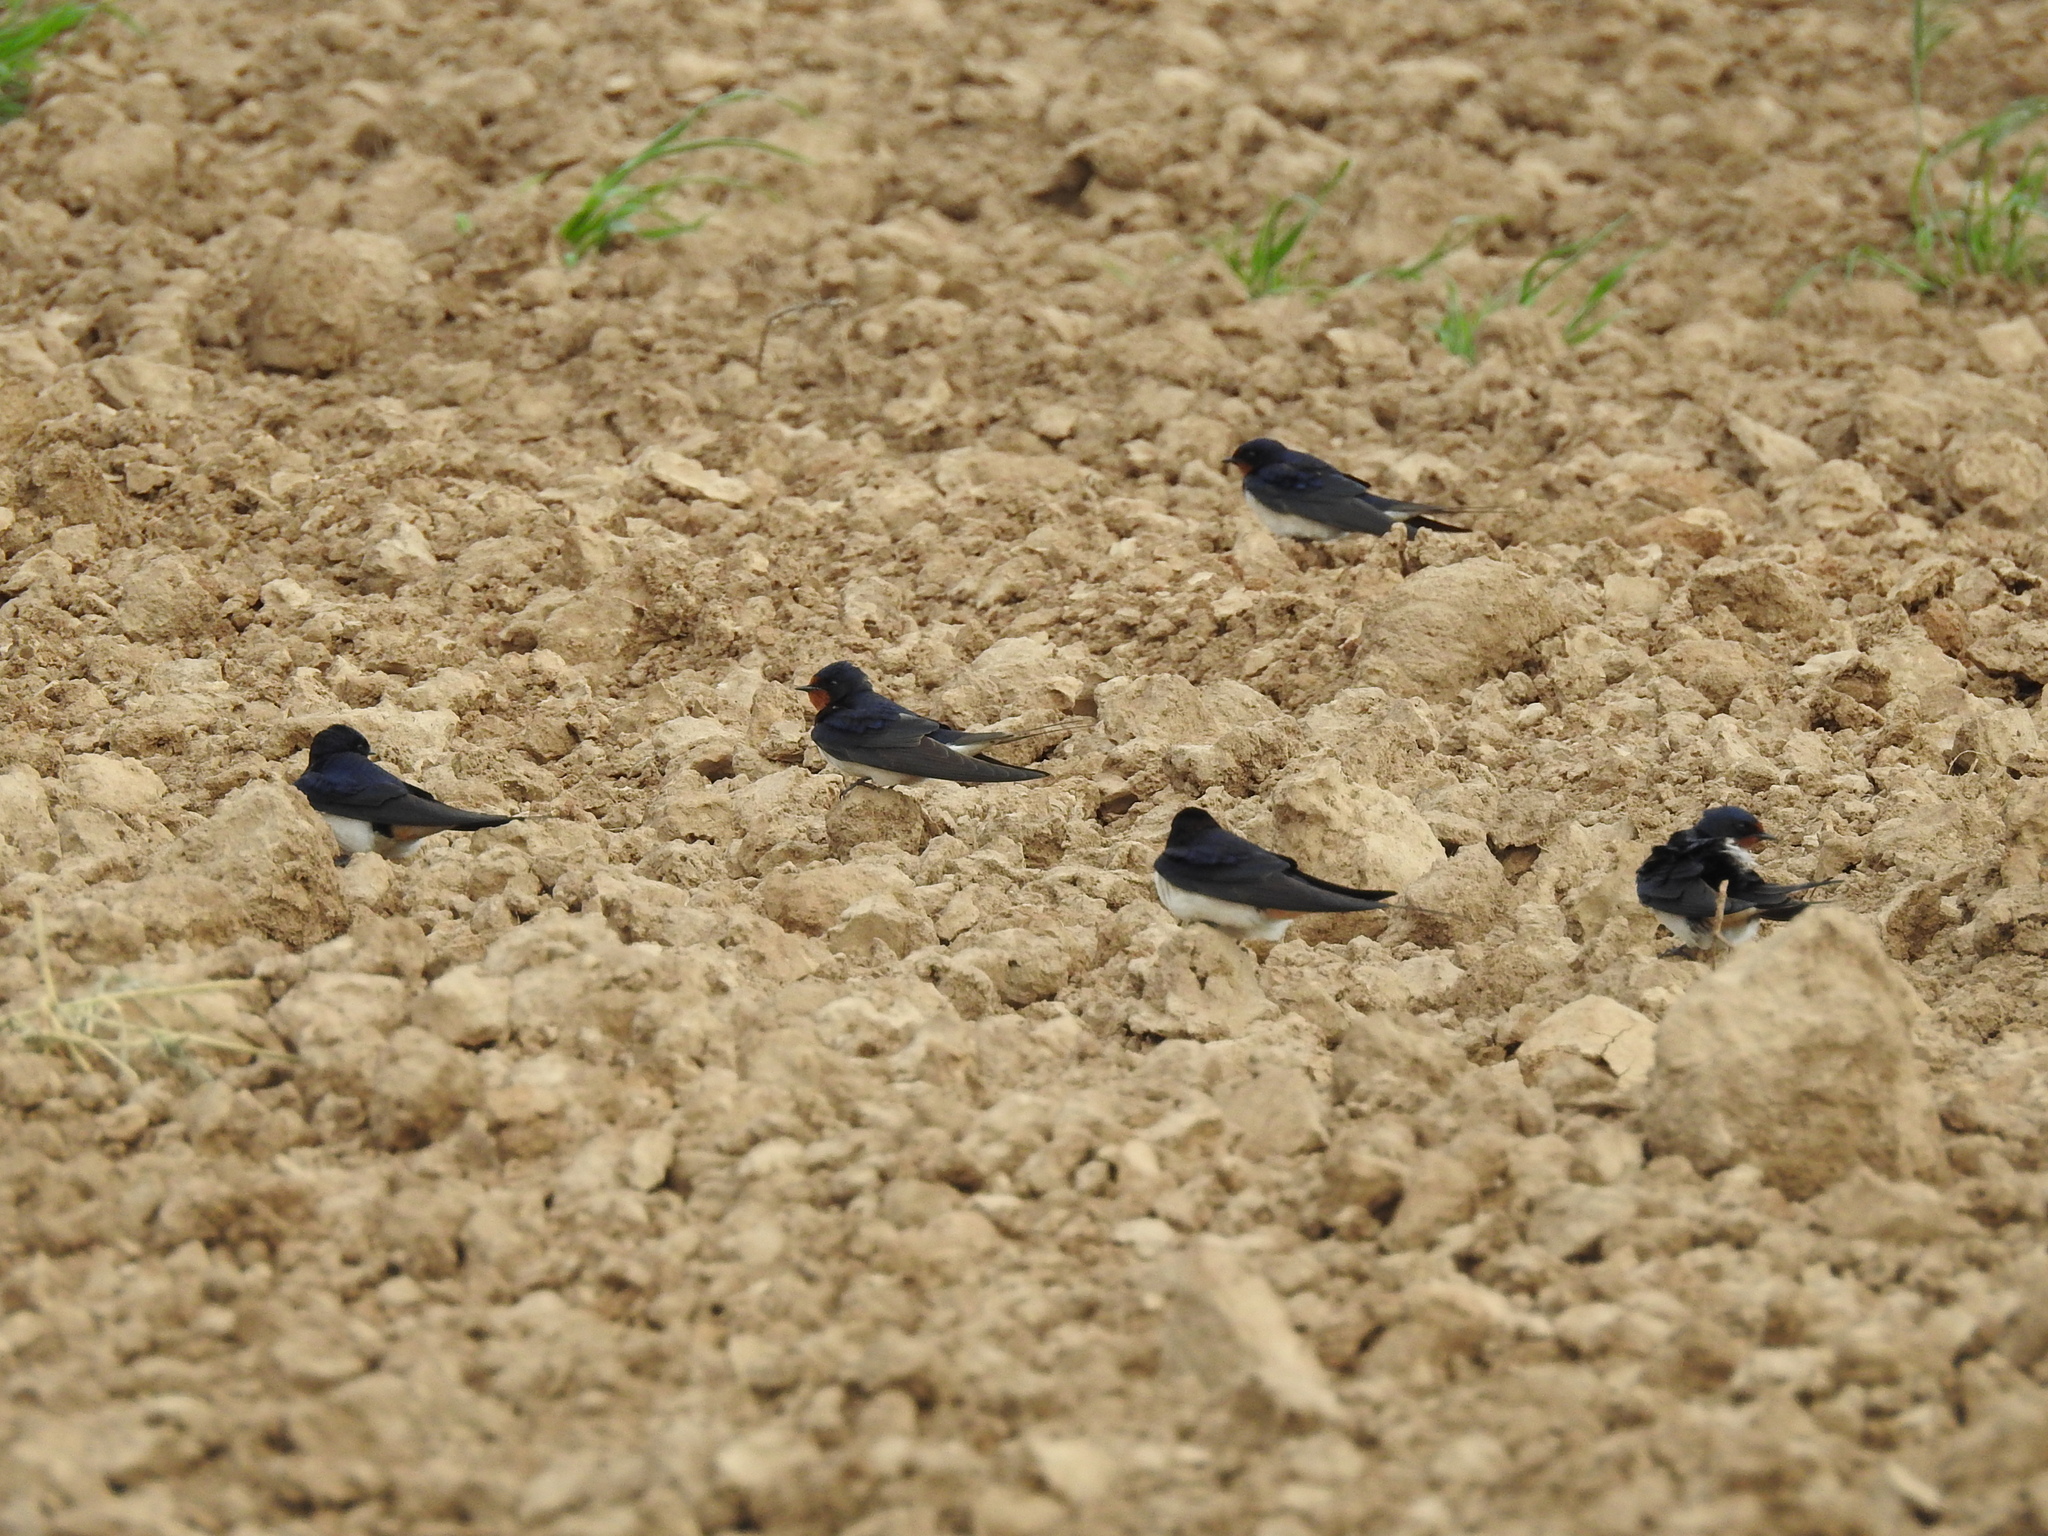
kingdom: Animalia
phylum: Chordata
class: Aves
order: Passeriformes
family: Hirundinidae
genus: Hirundo
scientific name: Hirundo rustica
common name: Barn swallow
